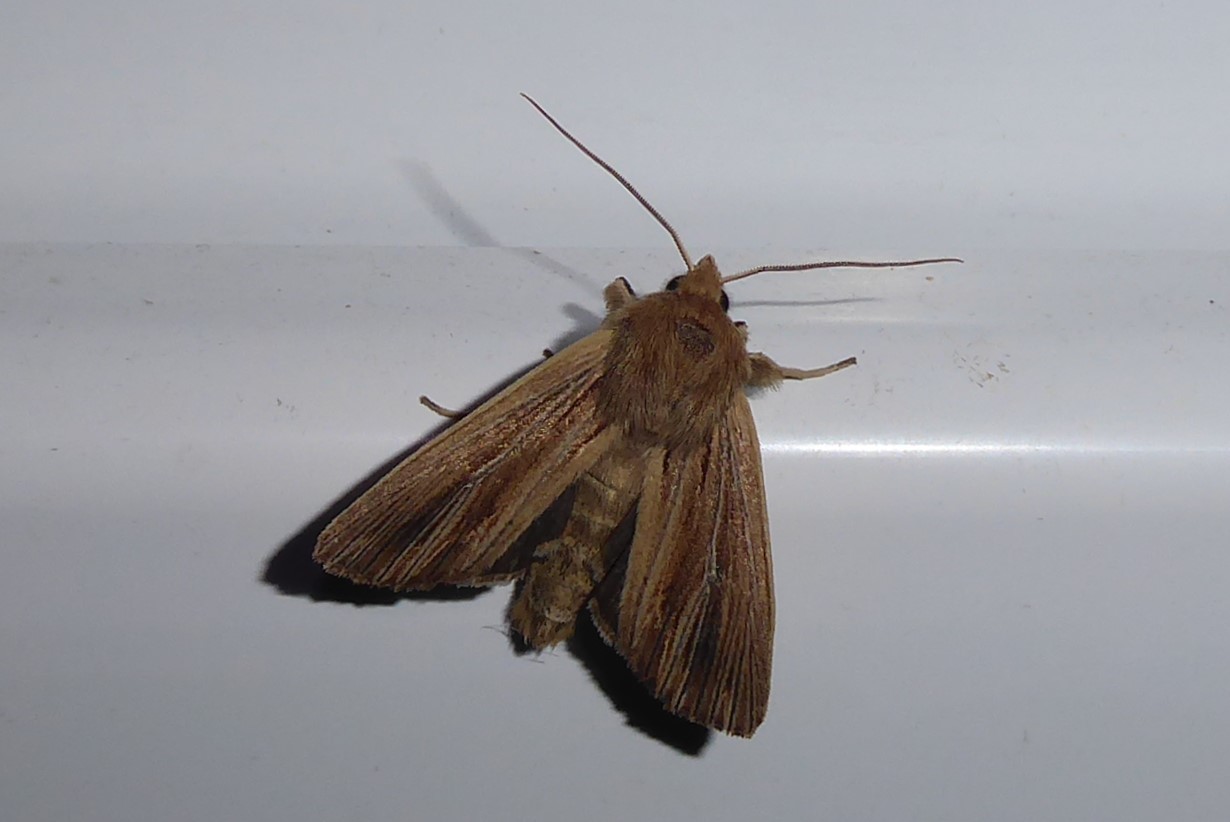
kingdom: Animalia
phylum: Arthropoda
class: Insecta
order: Lepidoptera
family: Noctuidae
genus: Ichneutica
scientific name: Ichneutica arotis
